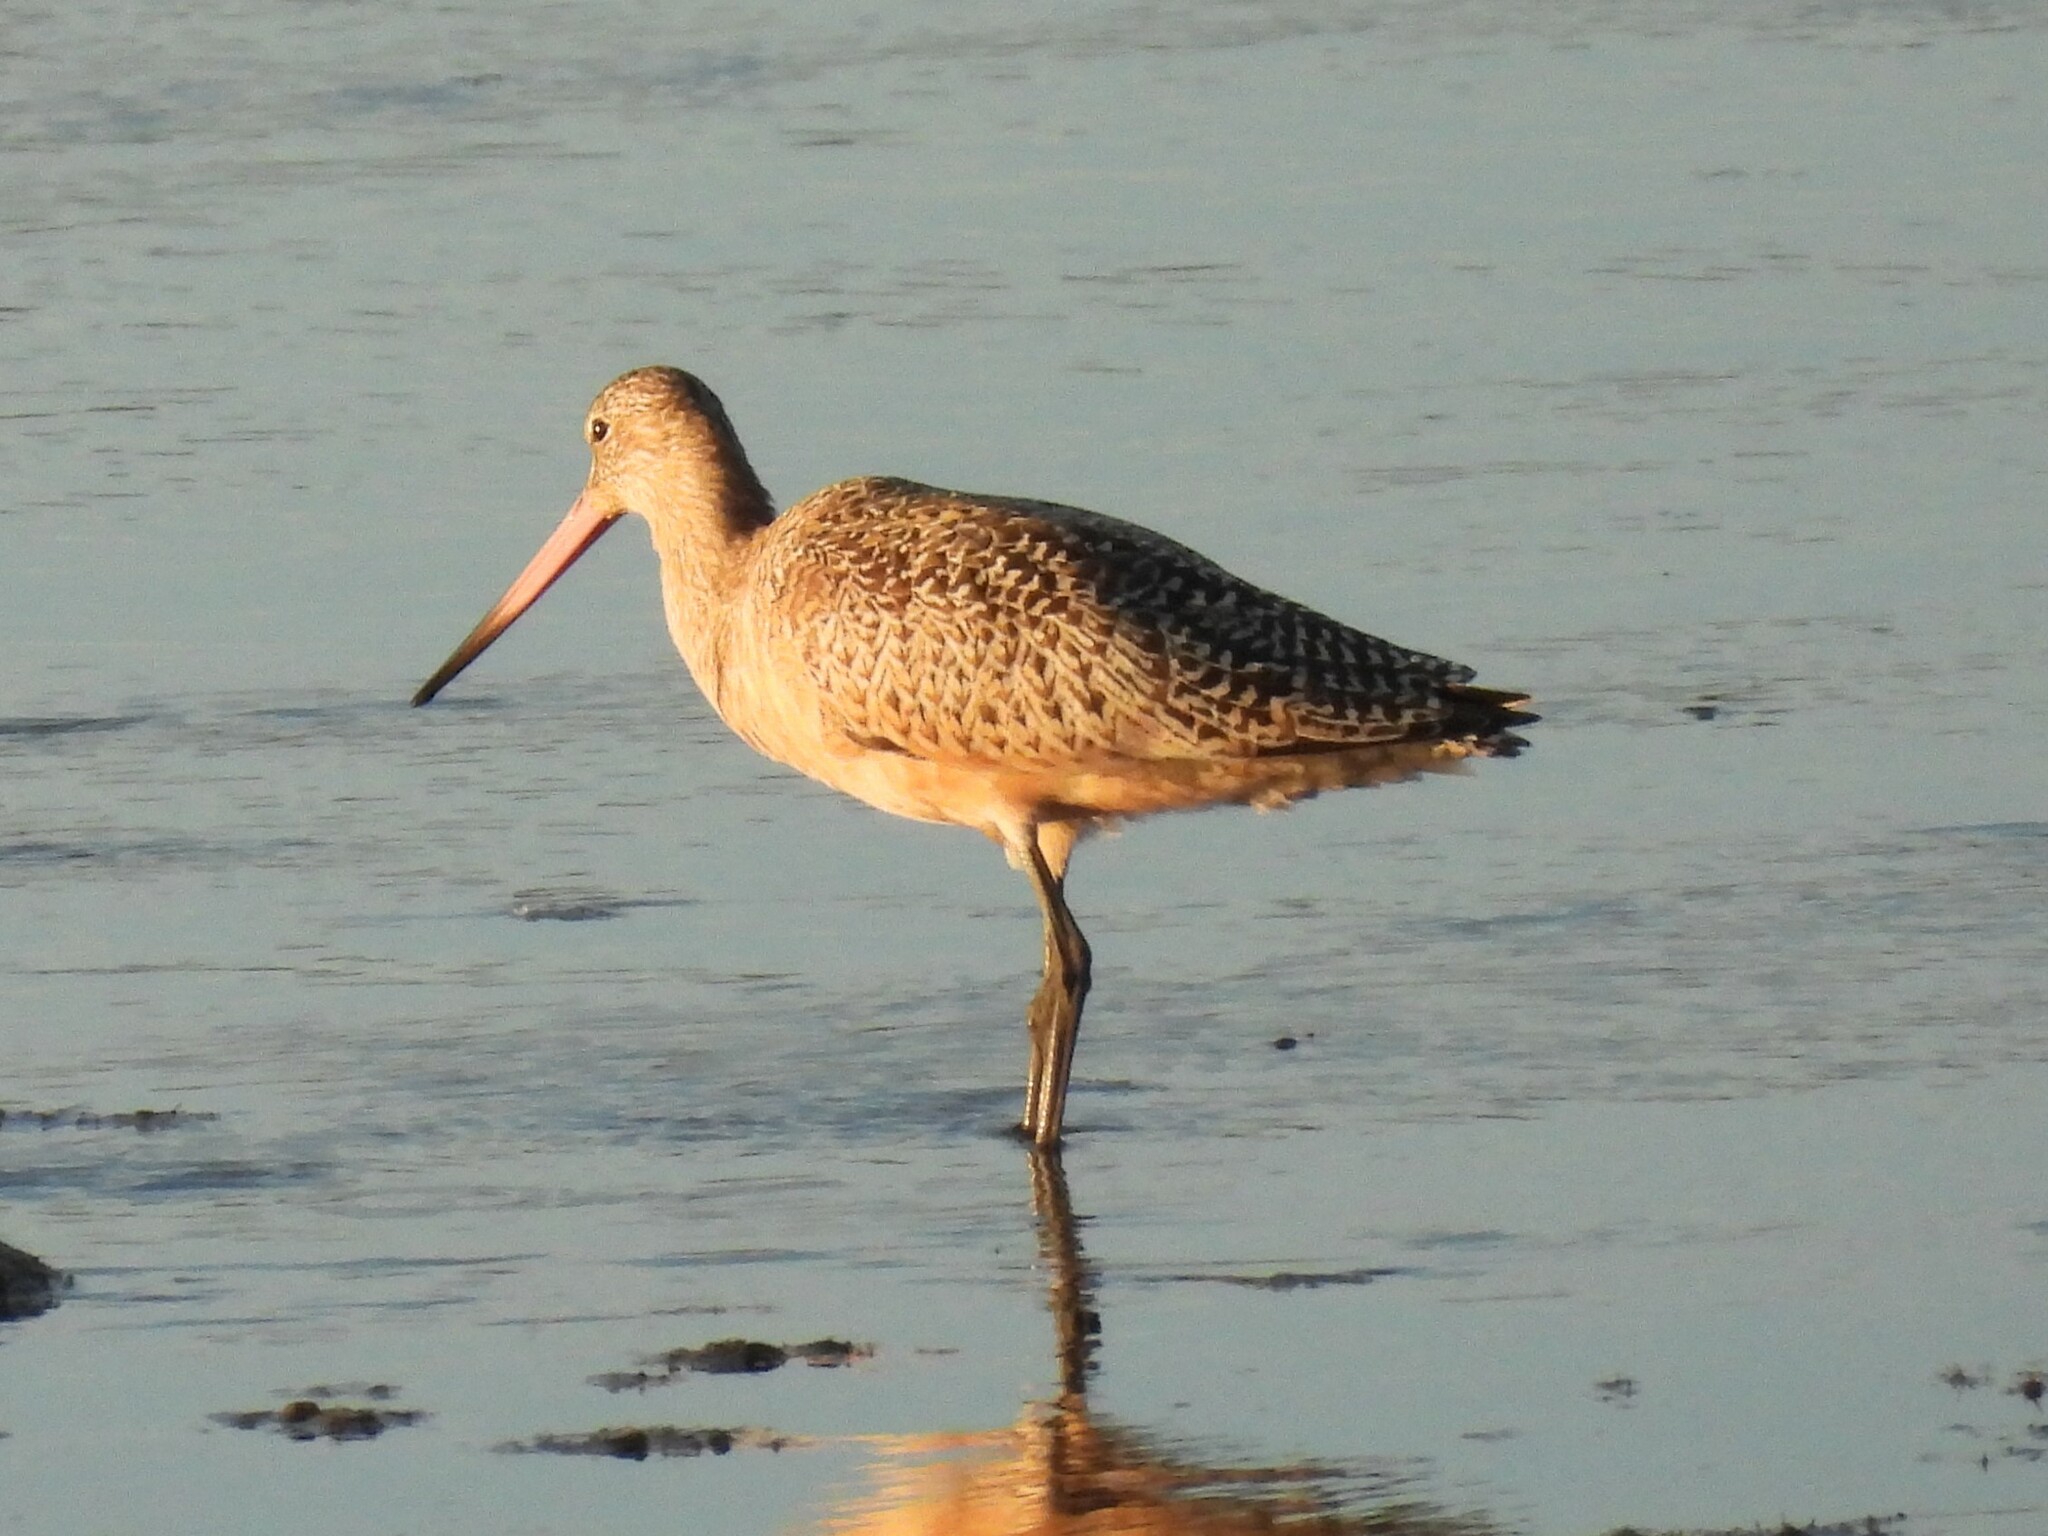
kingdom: Animalia
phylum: Chordata
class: Aves
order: Charadriiformes
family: Scolopacidae
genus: Limosa
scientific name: Limosa fedoa
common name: Marbled godwit
